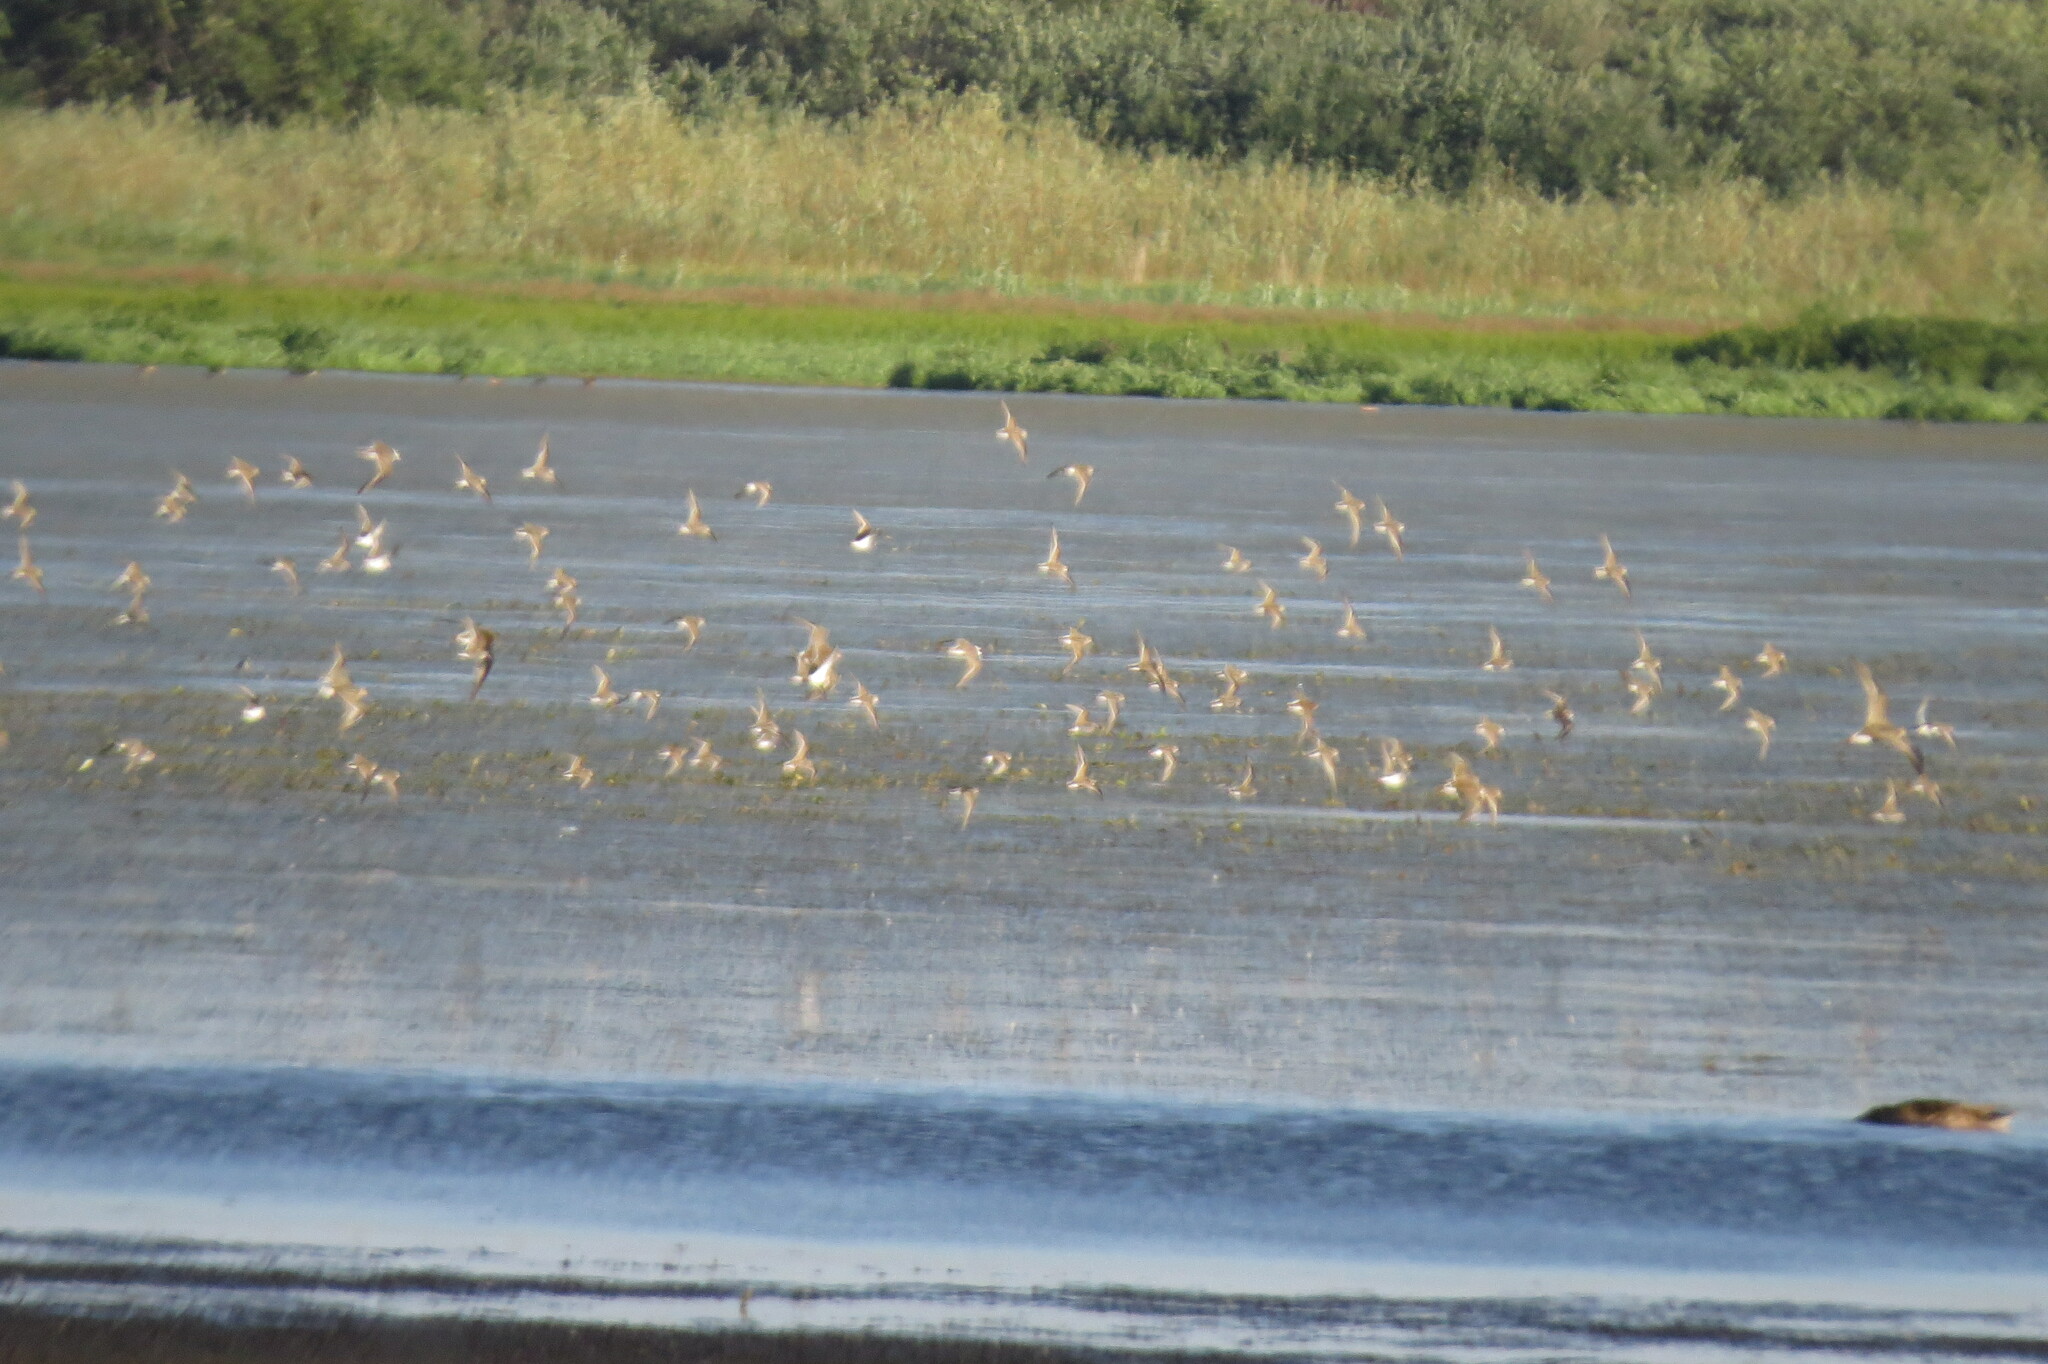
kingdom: Animalia
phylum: Chordata
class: Aves
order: Charadriiformes
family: Scolopacidae
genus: Calidris
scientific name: Calidris pugnax
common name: Ruff
